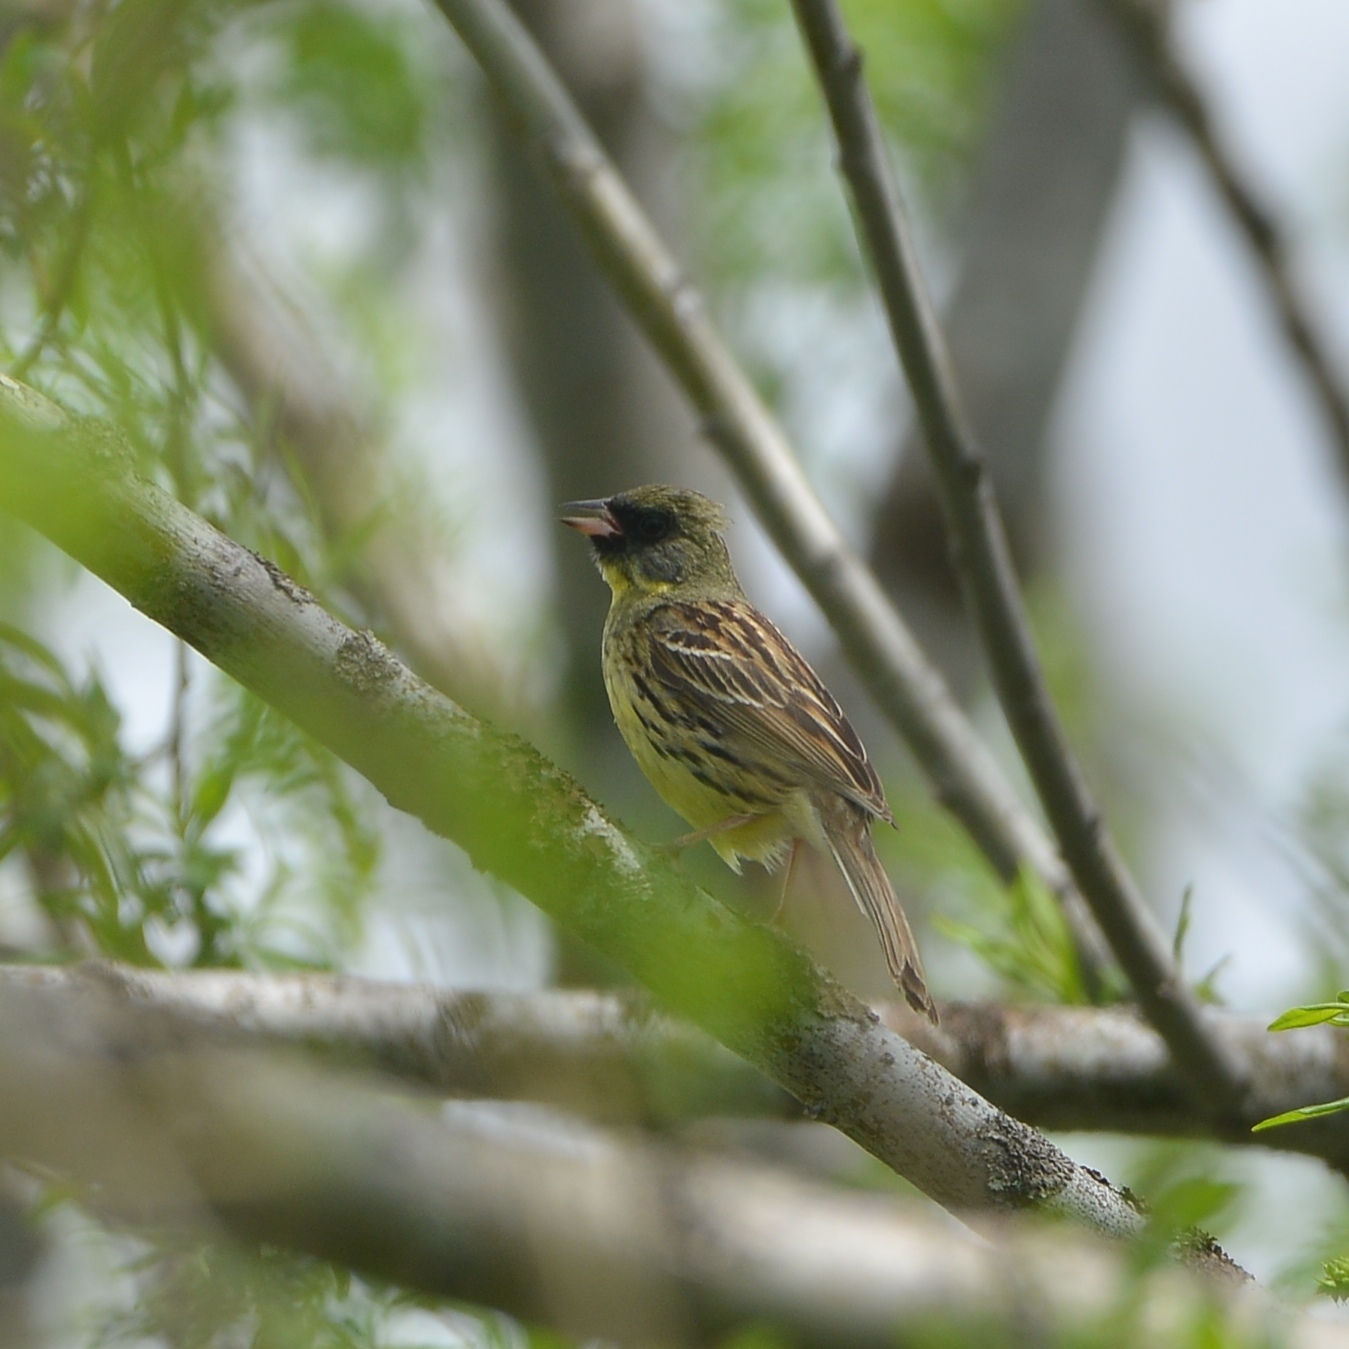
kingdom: Animalia
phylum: Chordata
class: Aves
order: Passeriformes
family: Emberizidae
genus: Emberiza
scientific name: Emberiza personata
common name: Masked bunting
